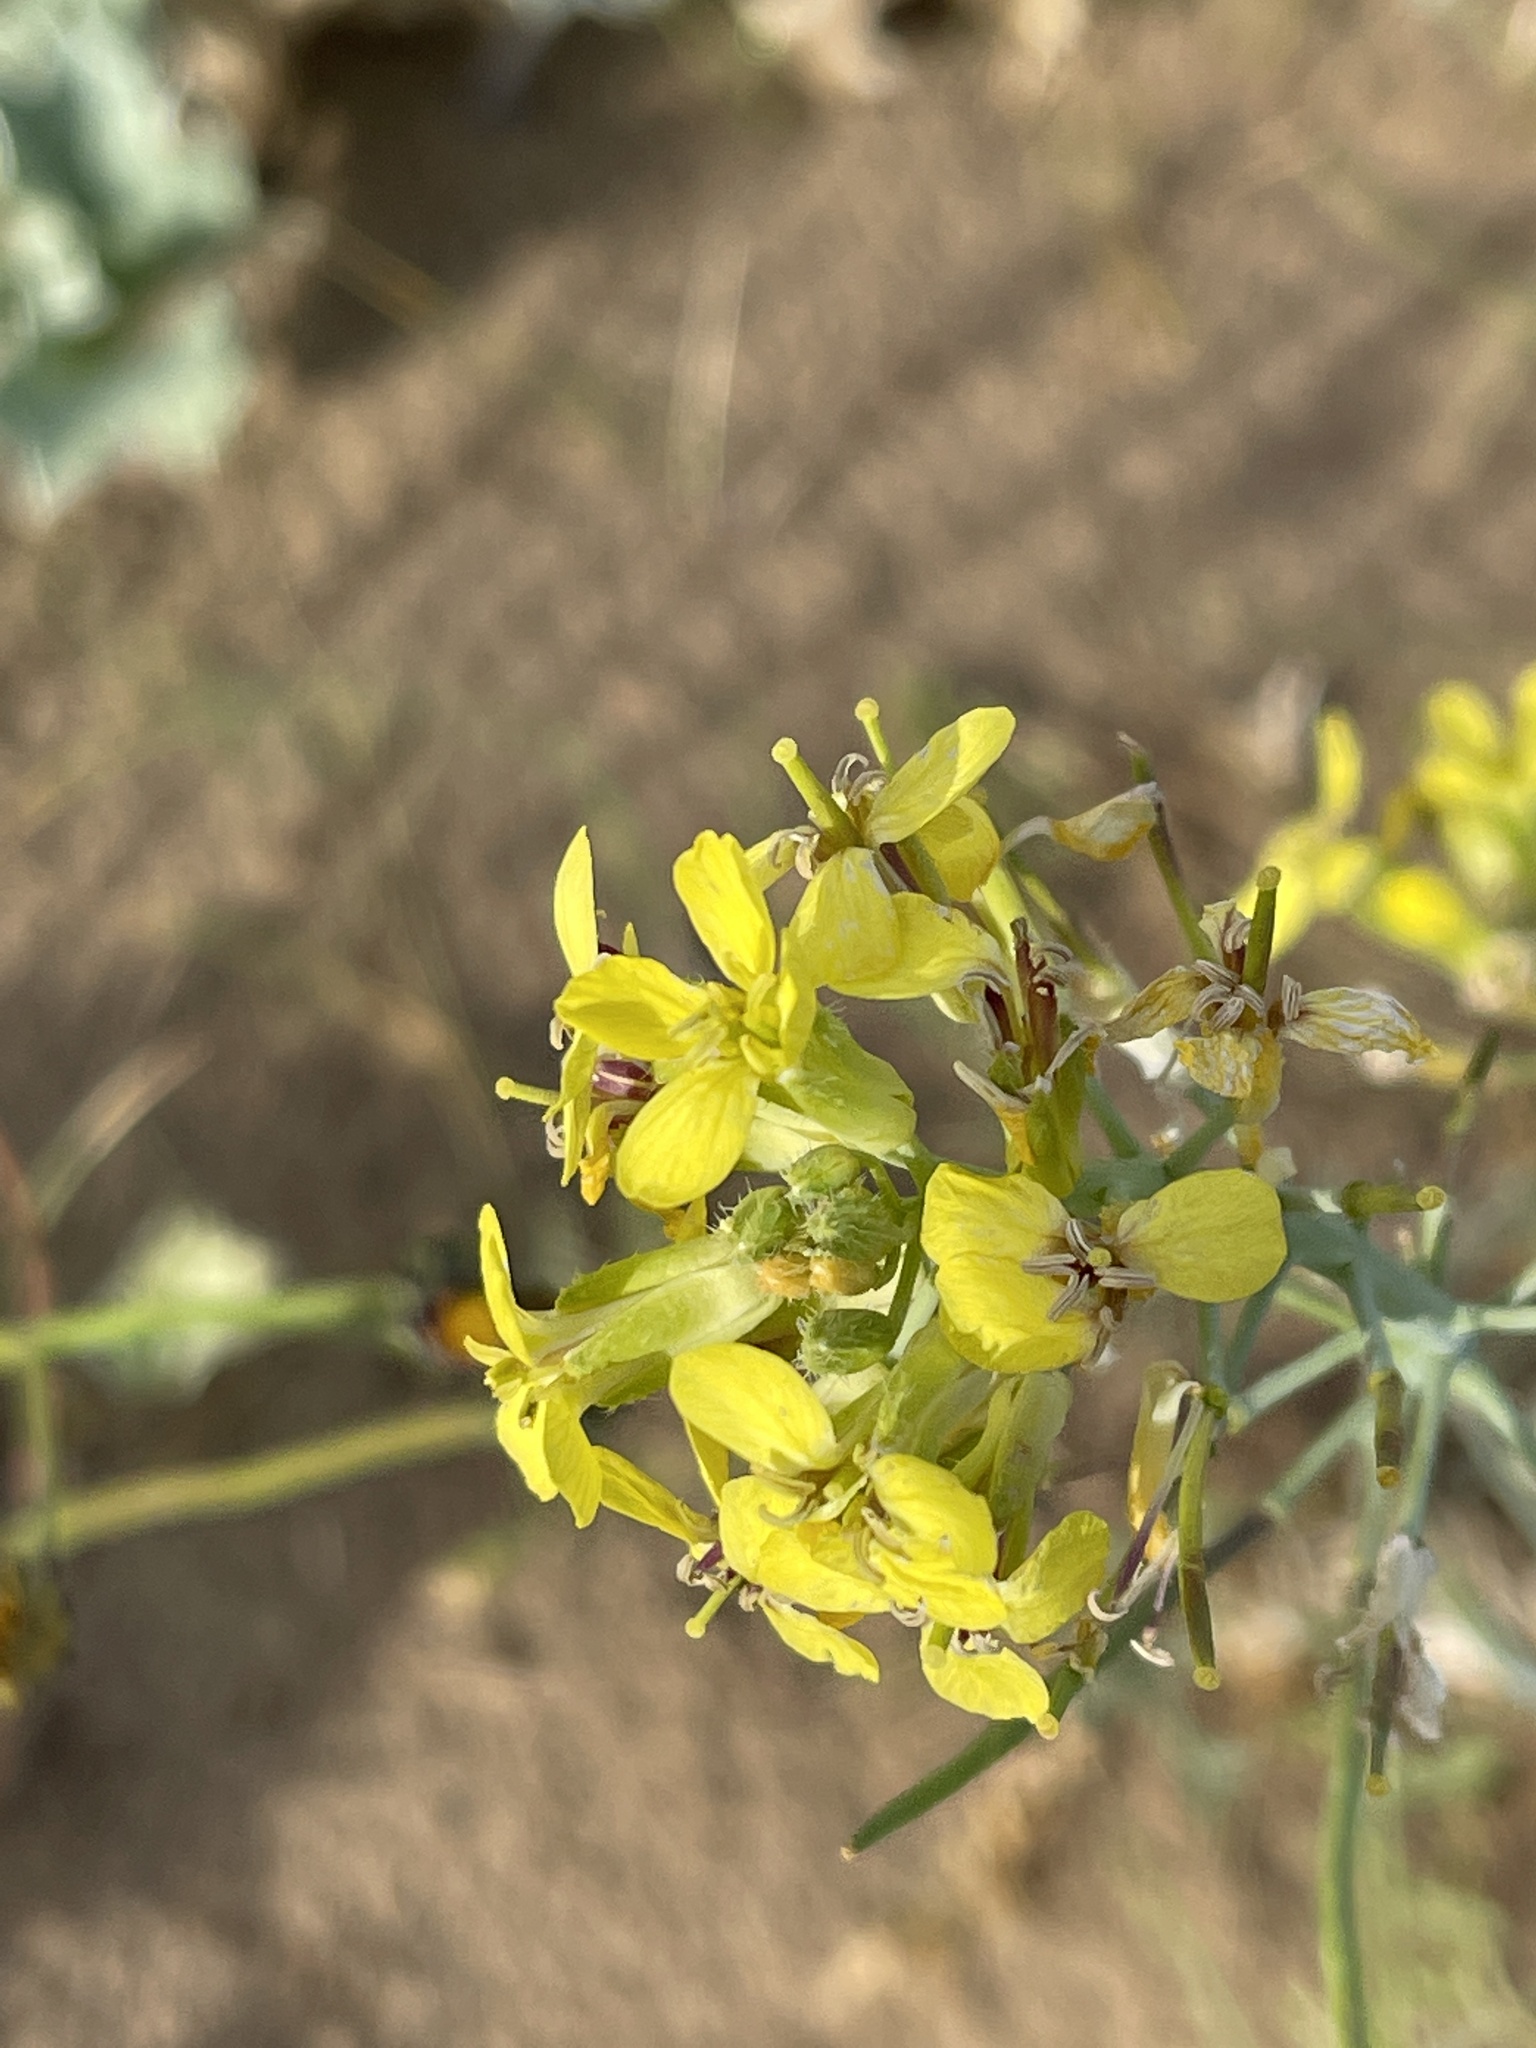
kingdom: Plantae
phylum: Tracheophyta
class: Magnoliopsida
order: Brassicales
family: Brassicaceae
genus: Coincya
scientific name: Coincya monensis
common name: Star-mustard
